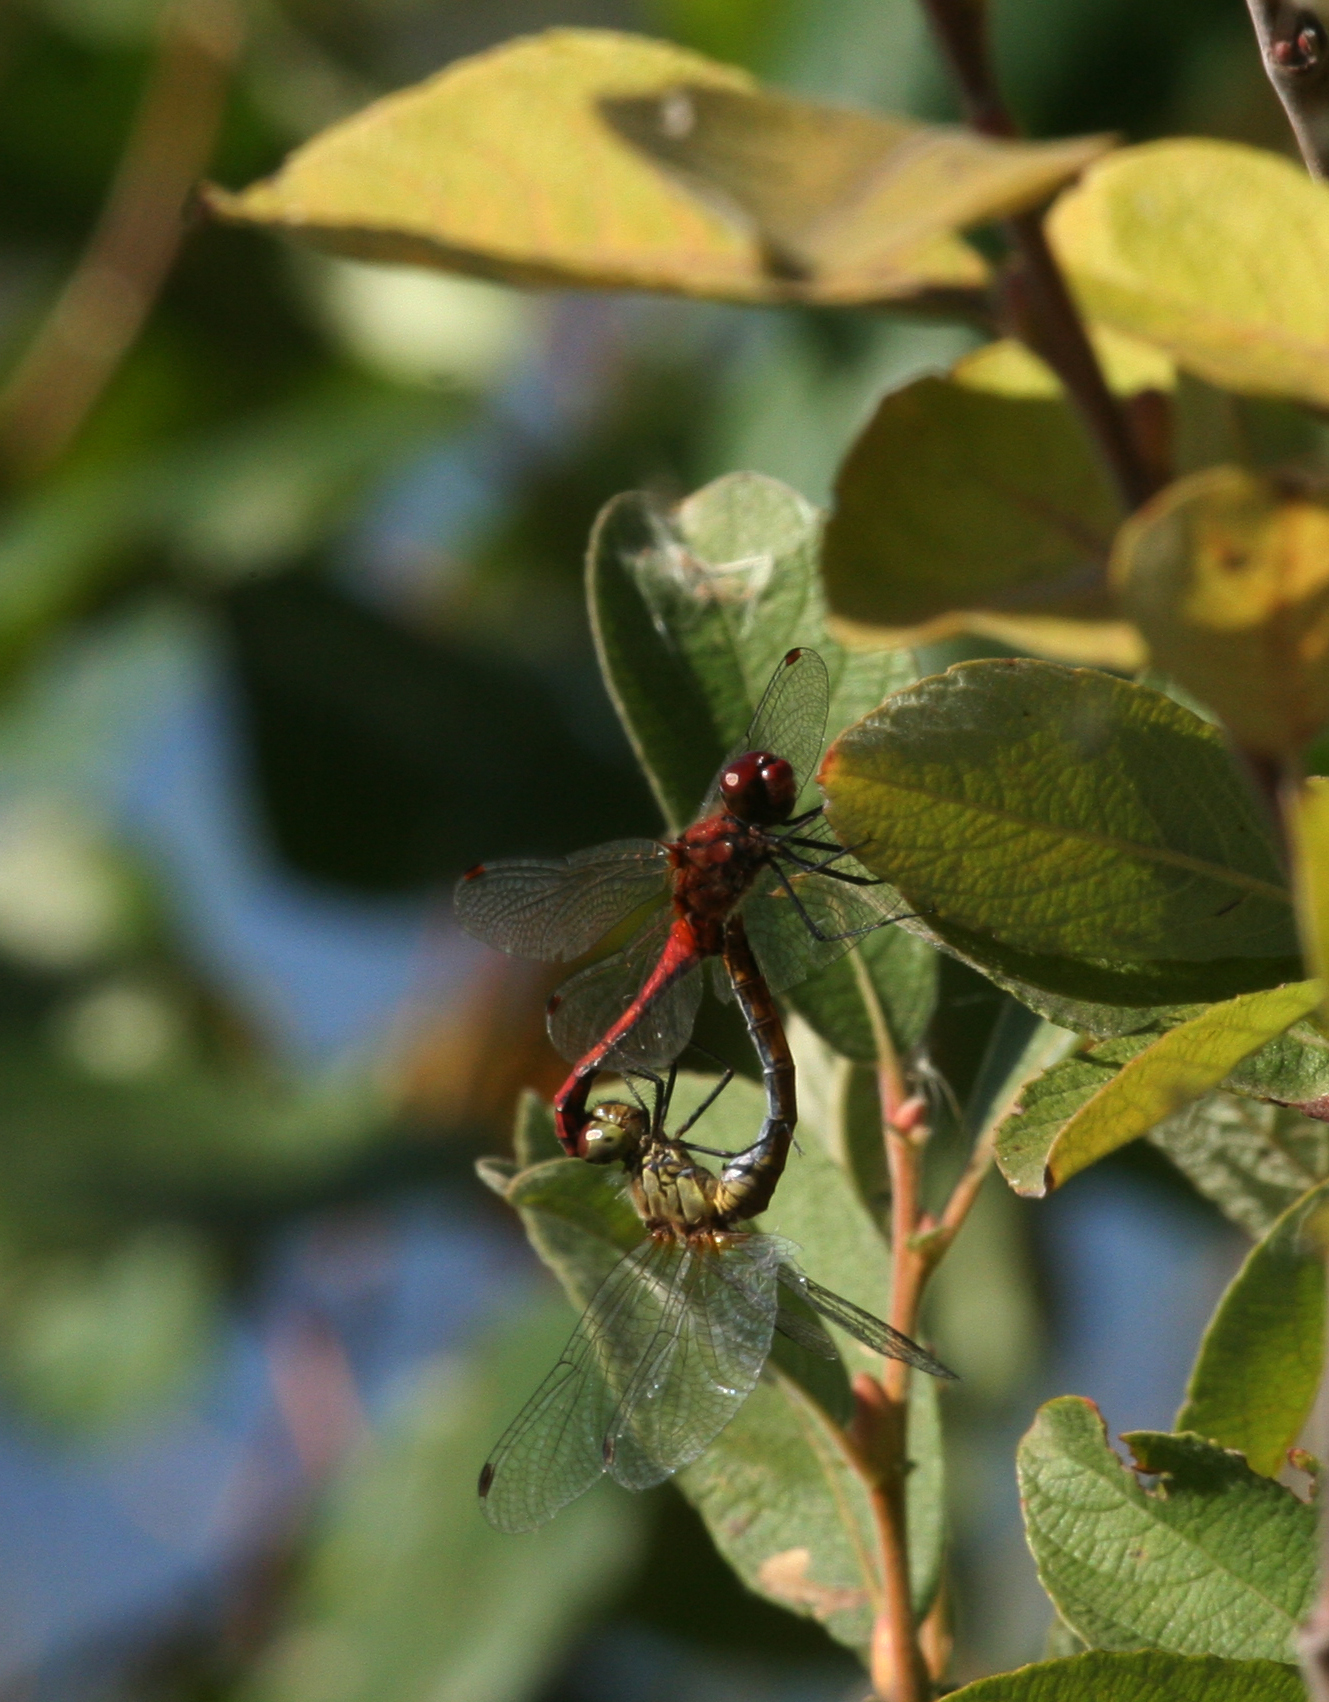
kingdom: Animalia
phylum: Arthropoda
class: Insecta
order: Odonata
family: Libellulidae
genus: Sympetrum
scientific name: Sympetrum sanguineum
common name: Ruddy darter
